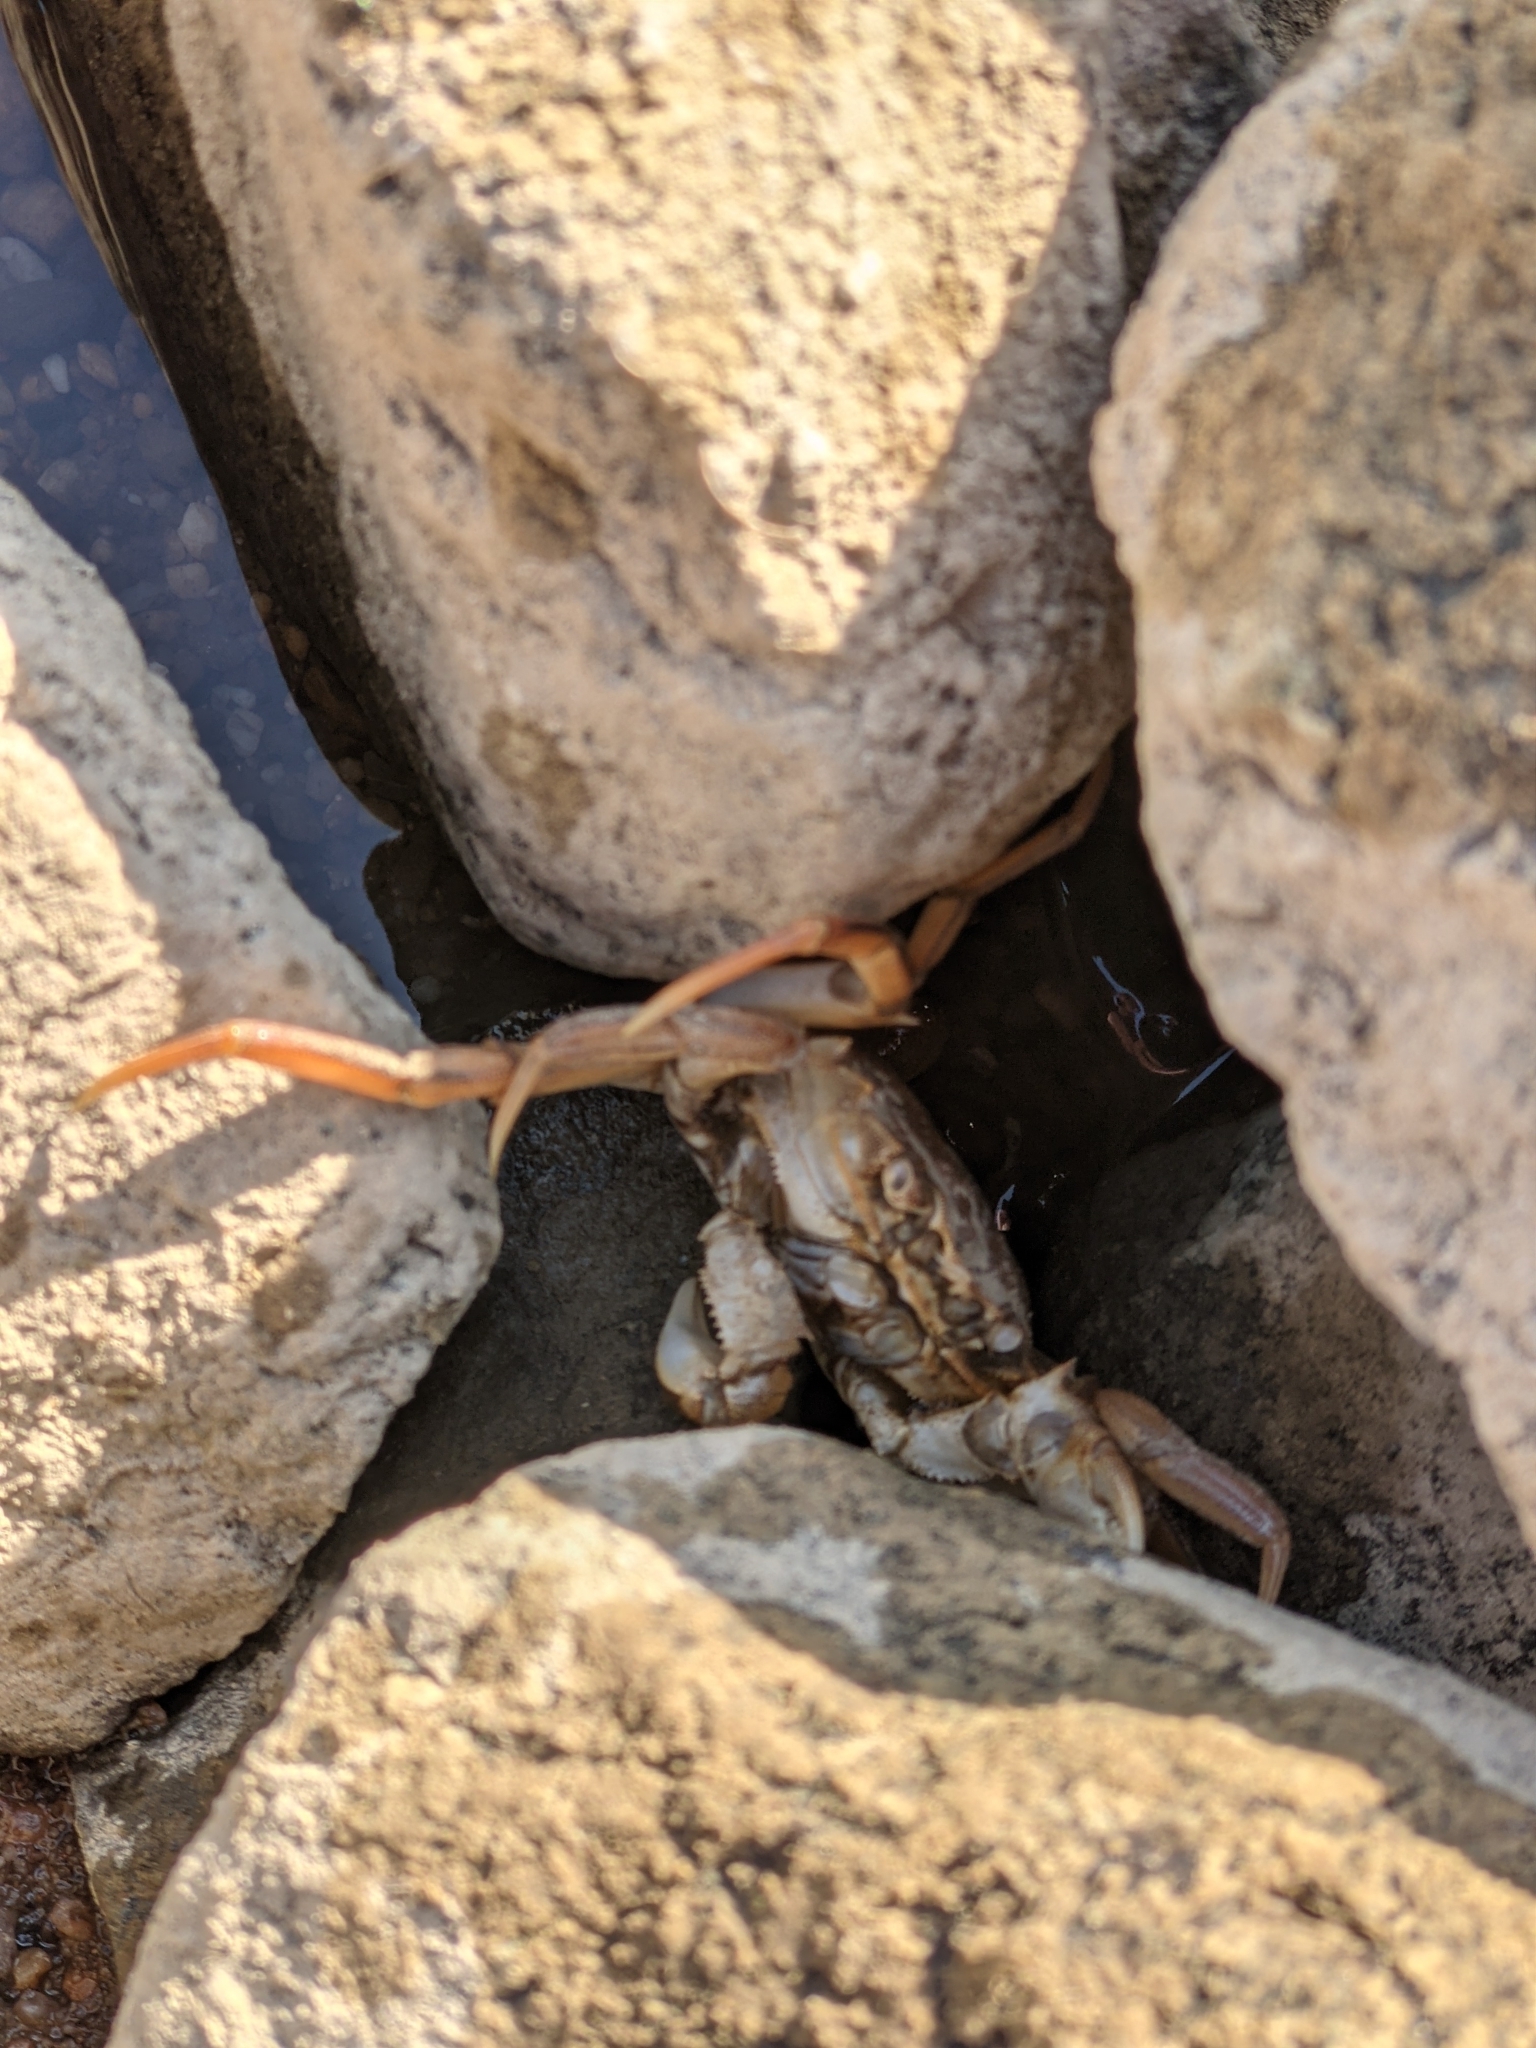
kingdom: Animalia
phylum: Arthropoda
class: Malacostraca
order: Decapoda
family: Varunidae
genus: Eriocheir
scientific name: Eriocheir sinensis
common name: Chinese mitten crab
